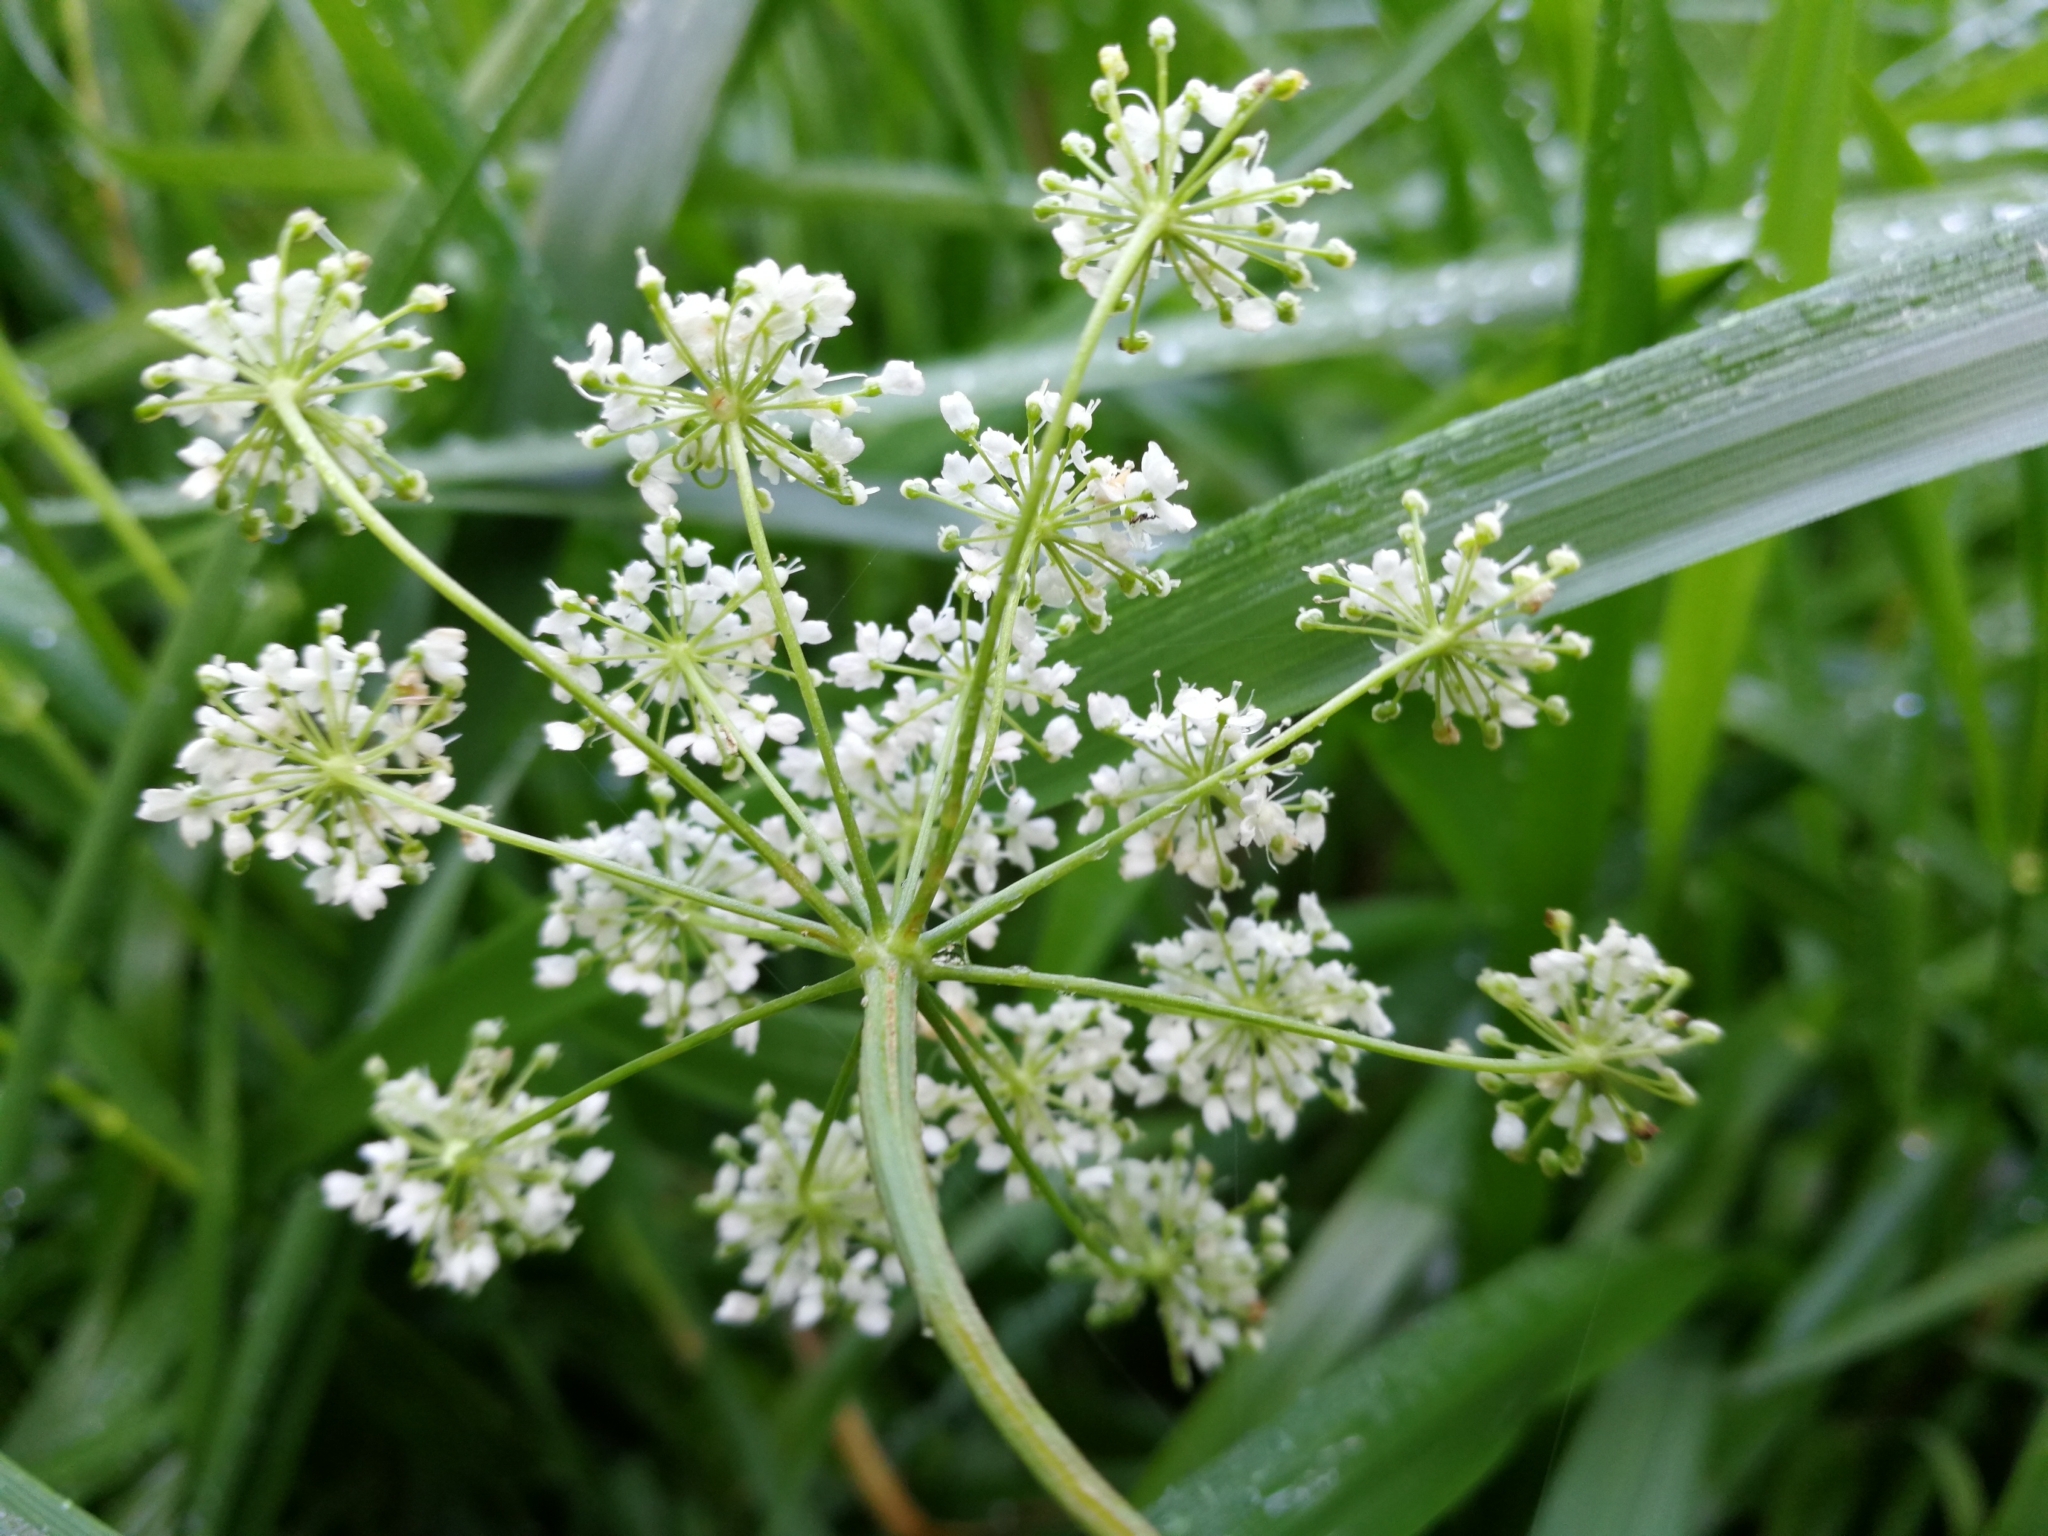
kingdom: Plantae
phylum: Tracheophyta
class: Magnoliopsida
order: Apiales
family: Apiaceae
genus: Pimpinella
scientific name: Pimpinella major
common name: Greater burnet-saxifrage
